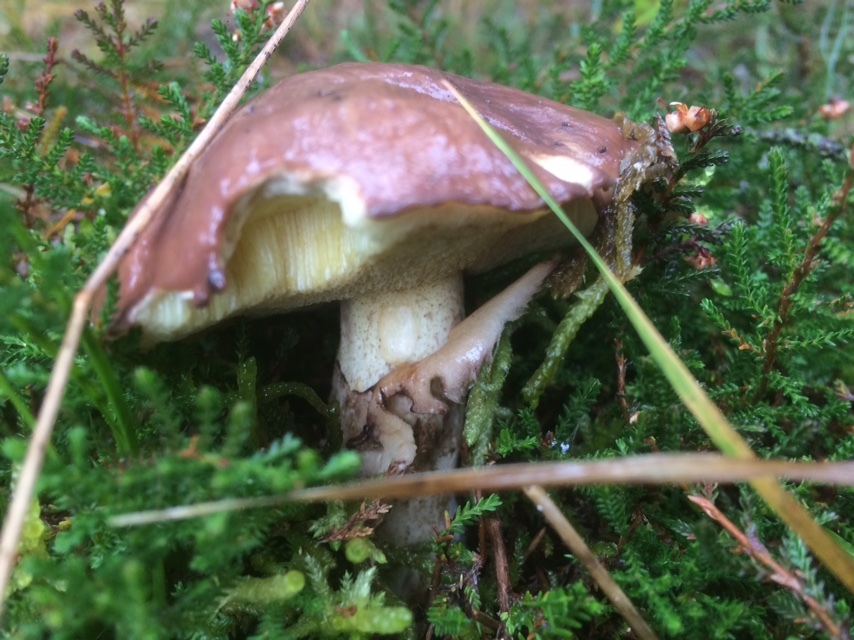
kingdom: Fungi
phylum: Basidiomycota
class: Agaricomycetes
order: Boletales
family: Suillaceae
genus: Suillus
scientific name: Suillus luteus
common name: Slippery jack
